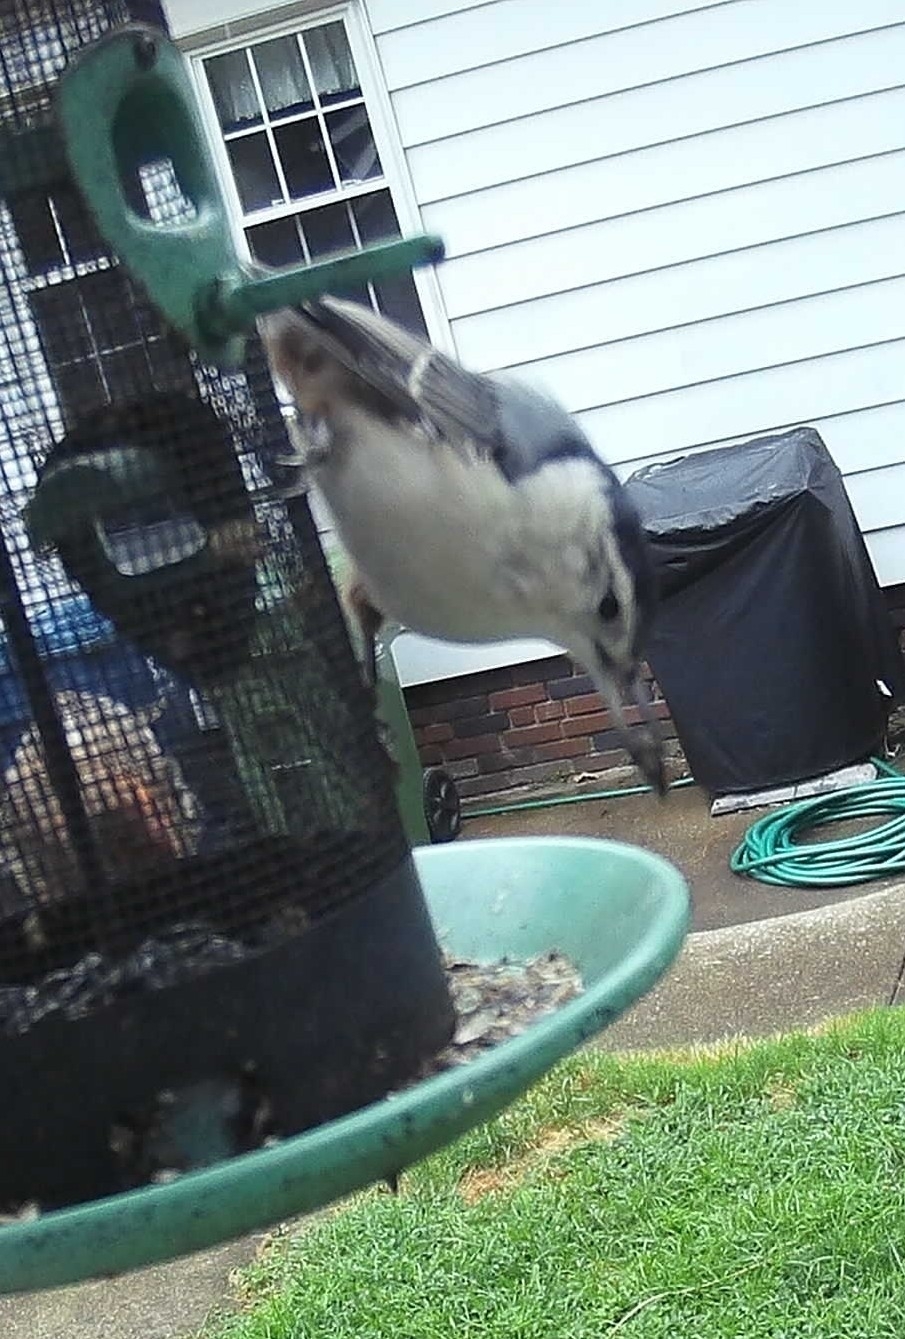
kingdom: Animalia
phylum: Chordata
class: Aves
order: Passeriformes
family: Sittidae
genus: Sitta
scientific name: Sitta carolinensis
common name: White-breasted nuthatch
